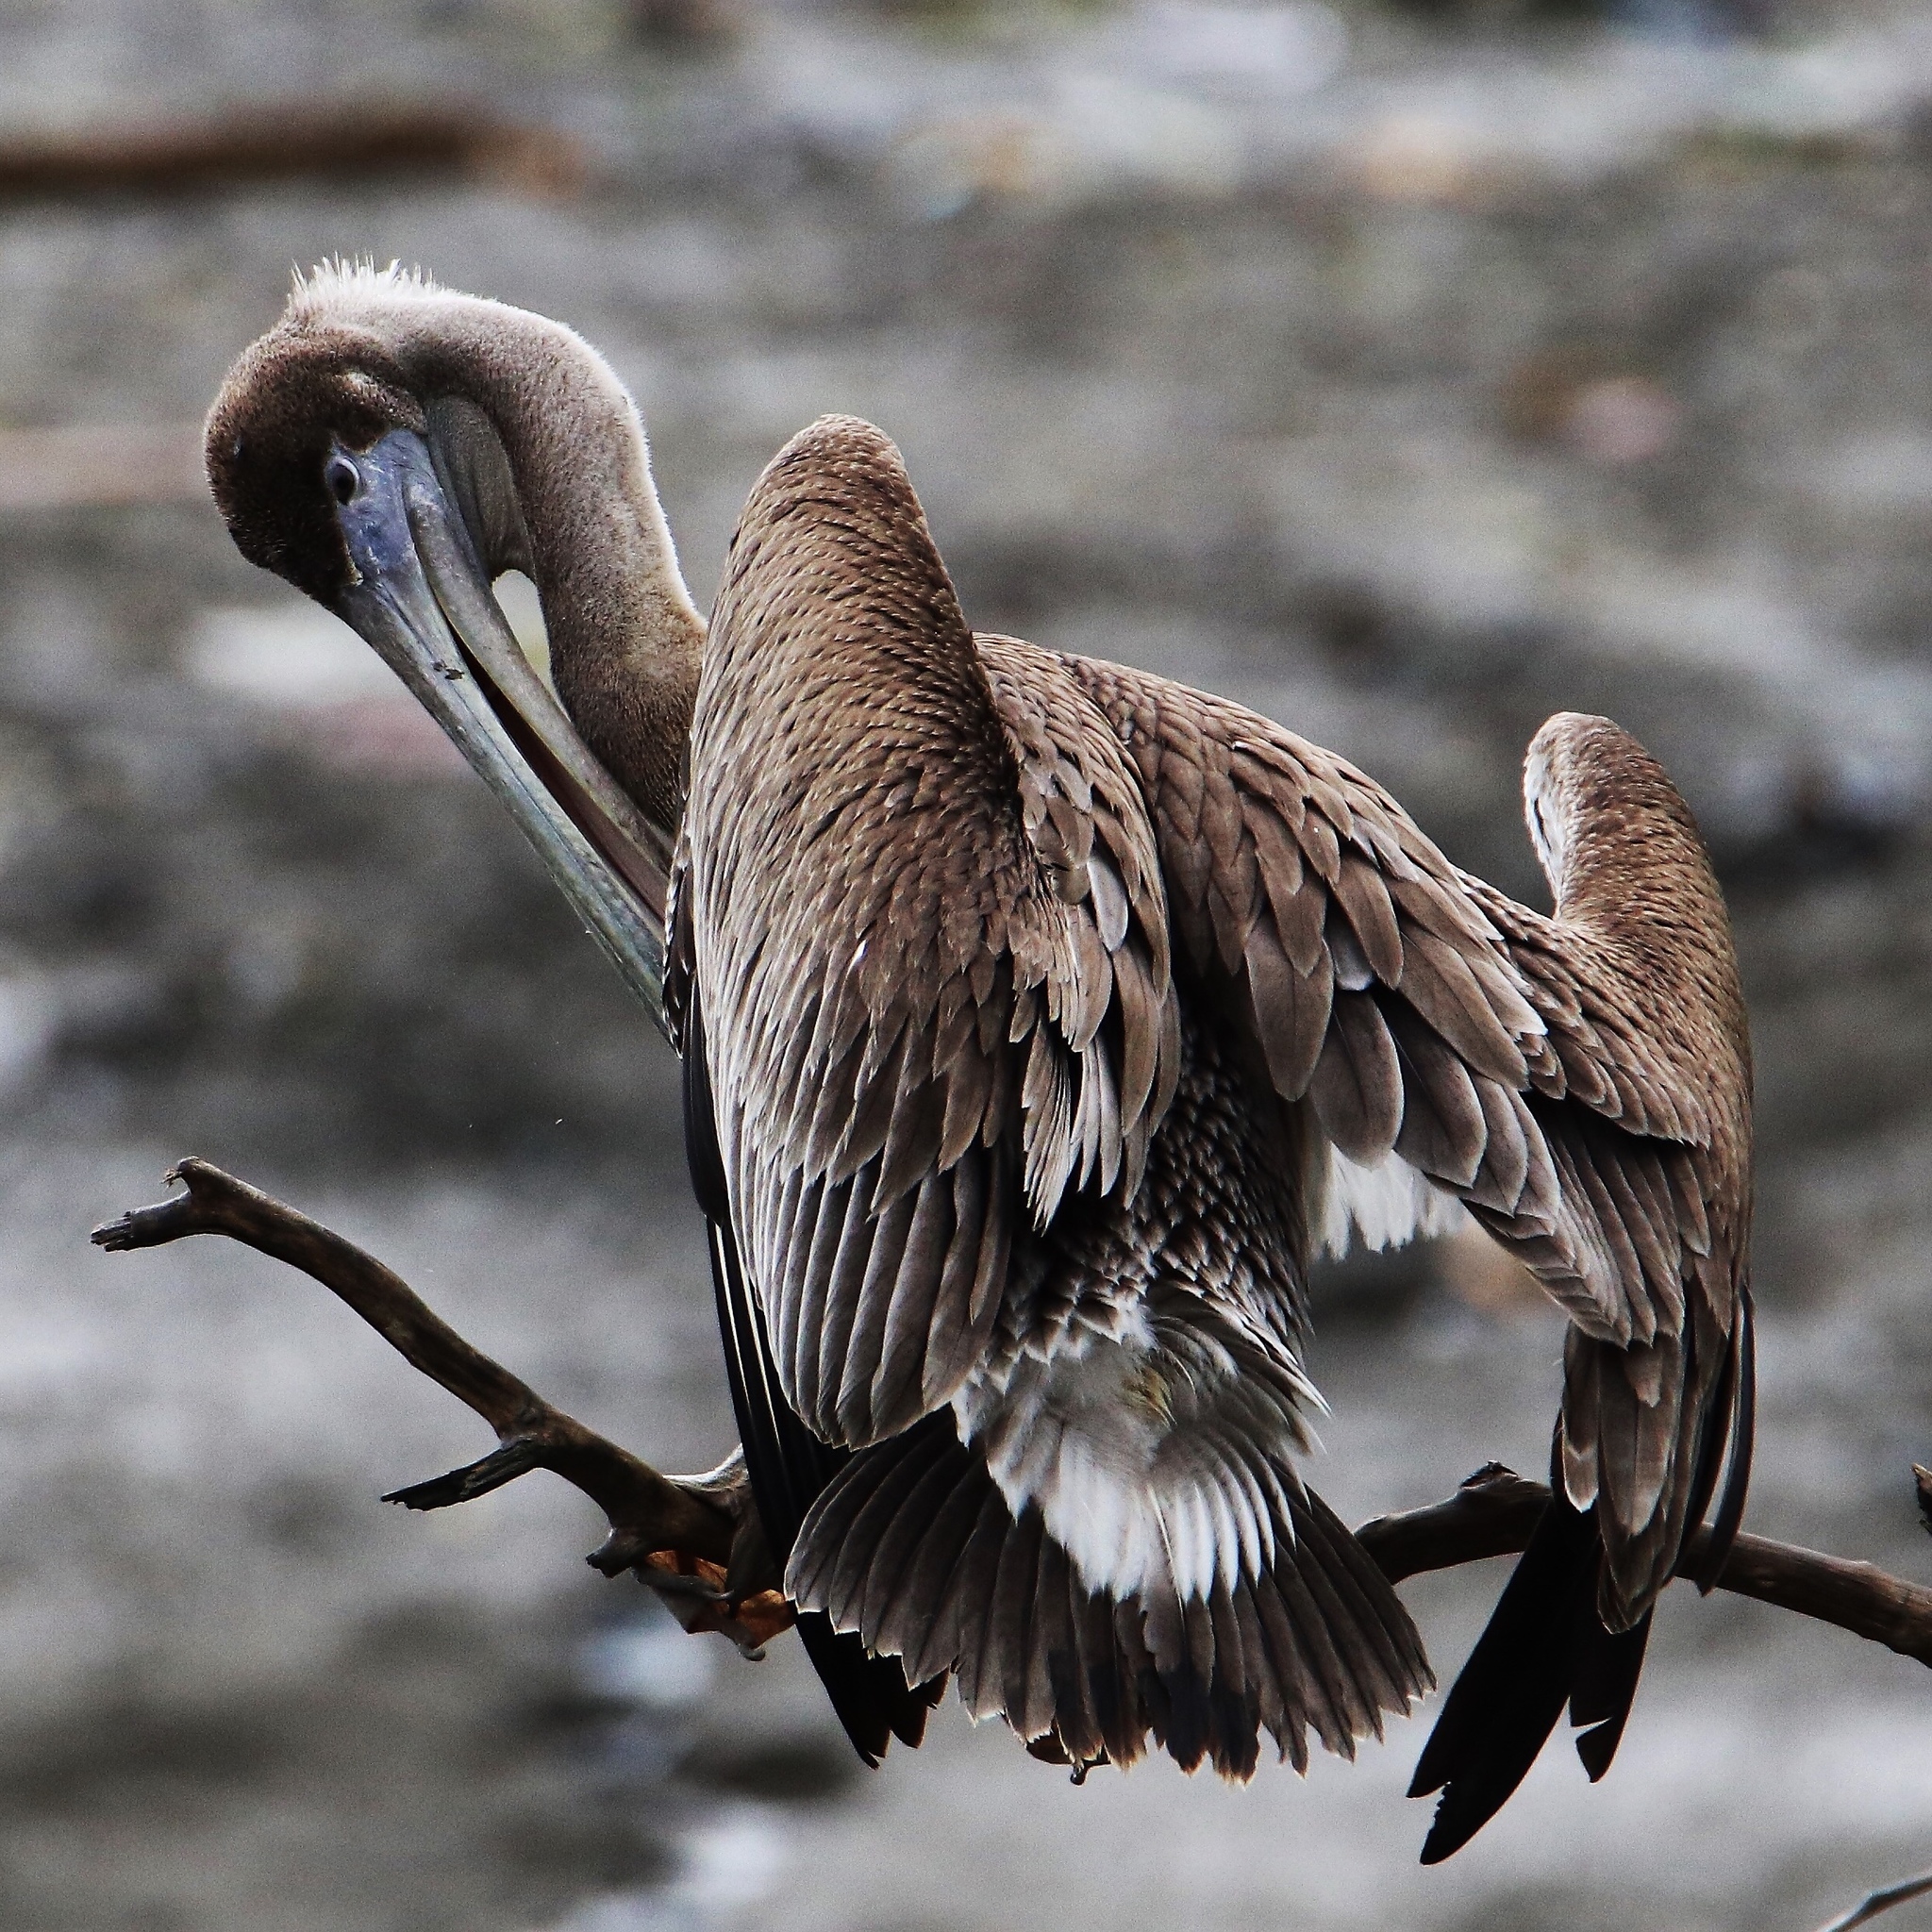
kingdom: Animalia
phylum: Chordata
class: Aves
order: Pelecaniformes
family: Pelecanidae
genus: Pelecanus
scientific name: Pelecanus occidentalis
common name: Brown pelican
